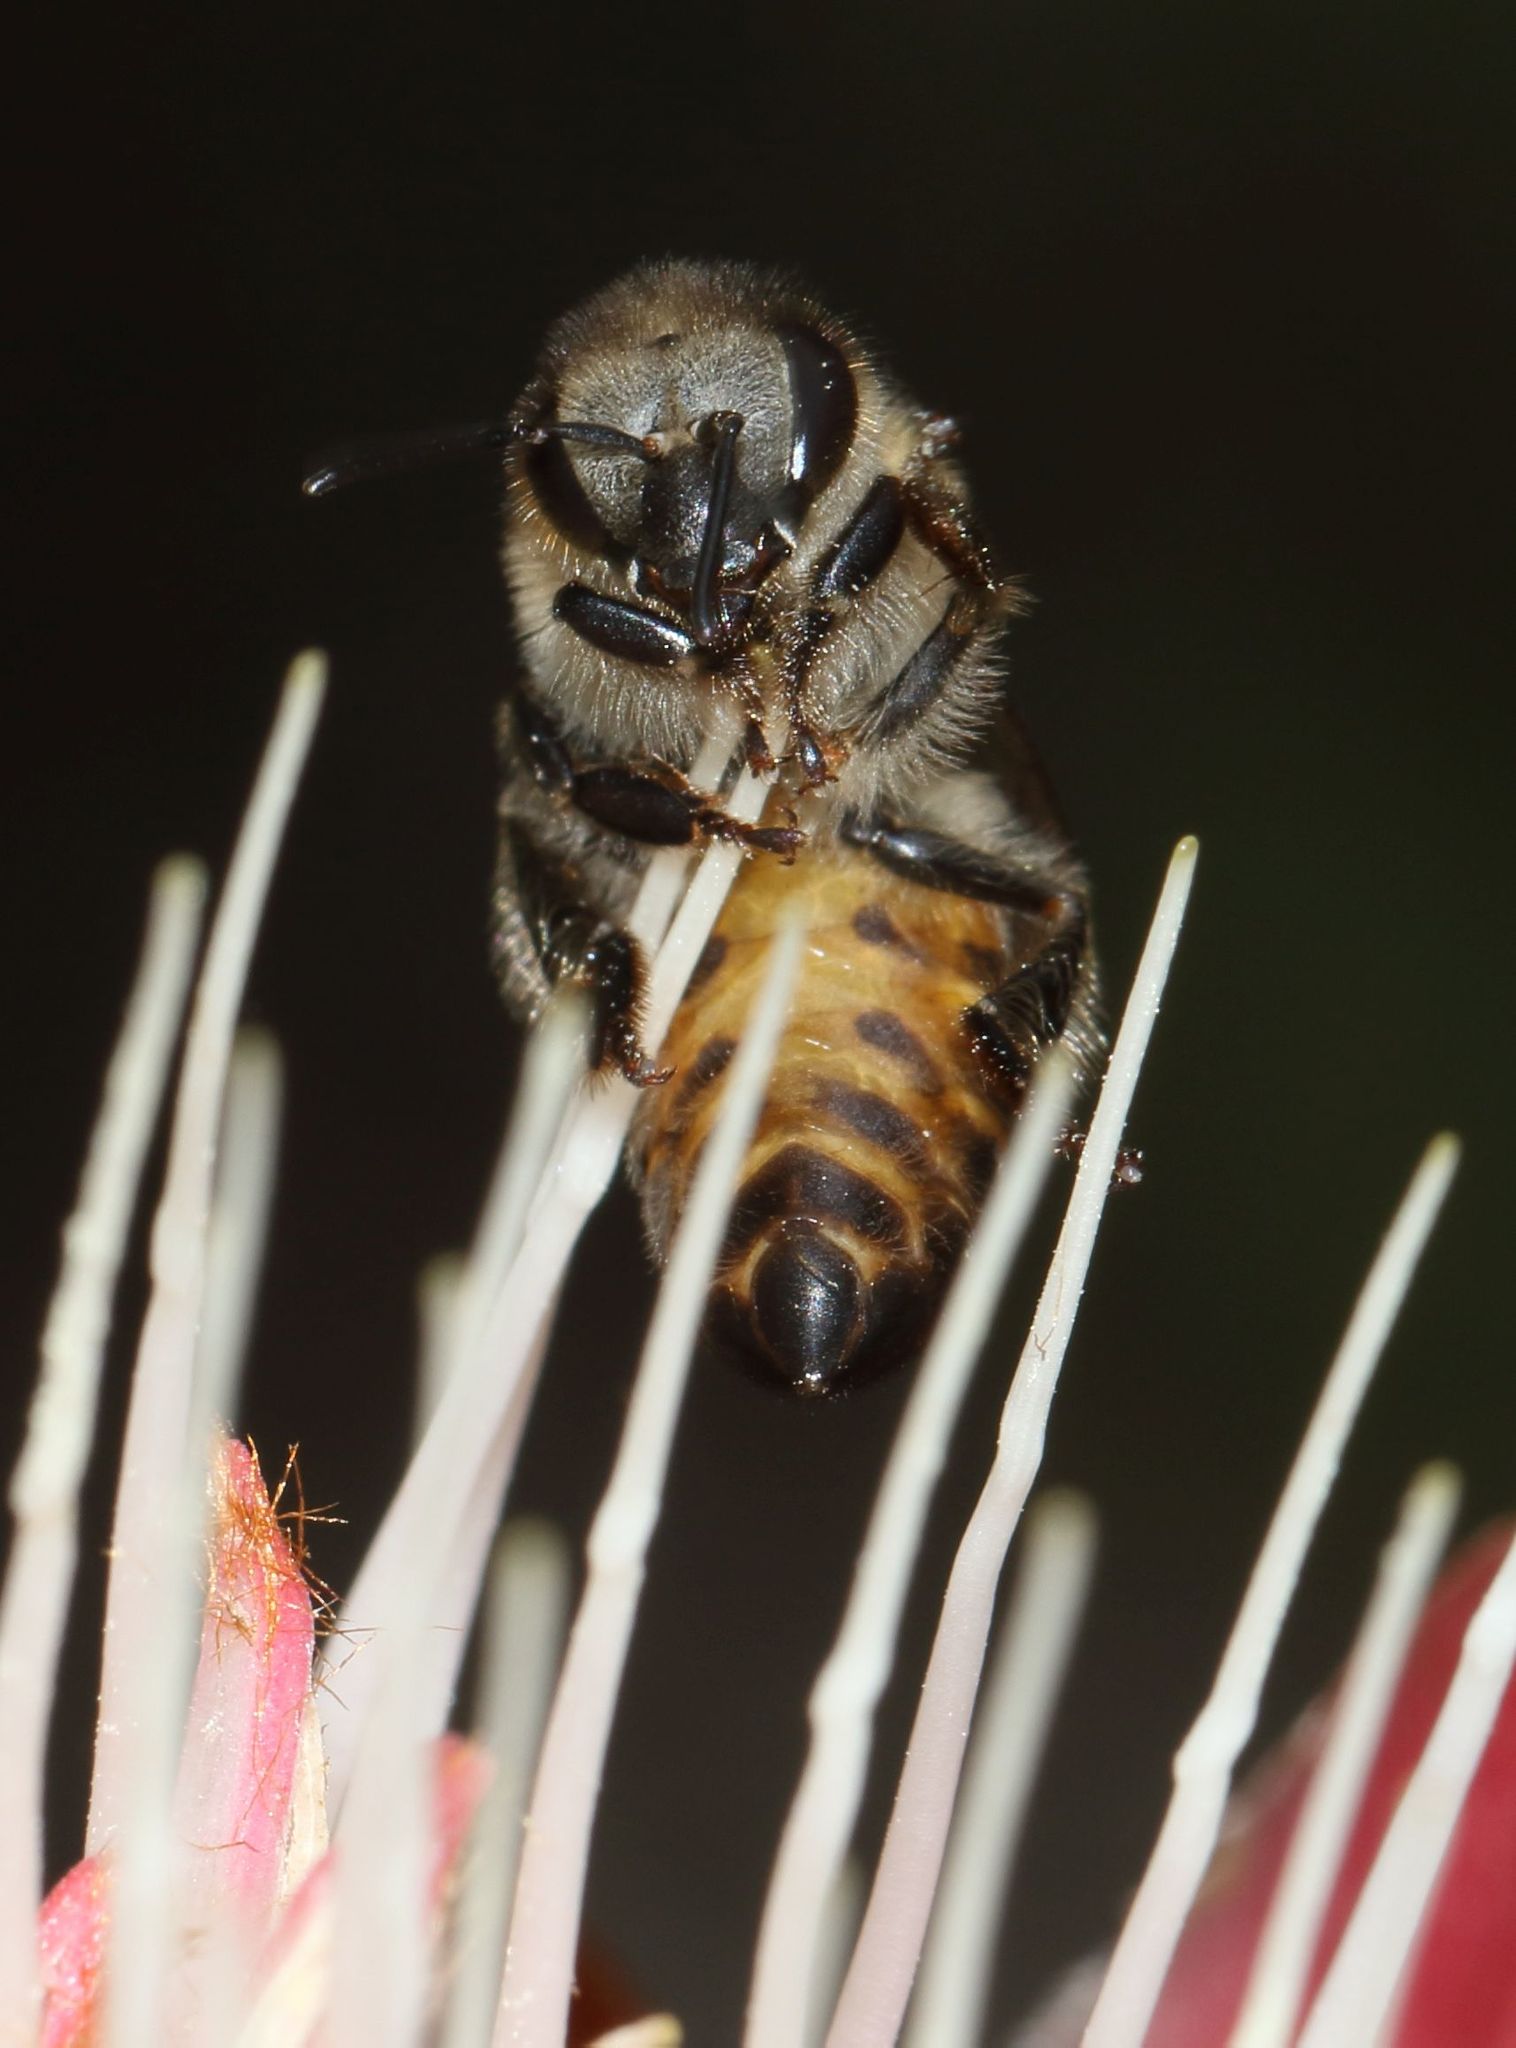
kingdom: Animalia
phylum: Arthropoda
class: Insecta
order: Hymenoptera
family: Apidae
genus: Apis
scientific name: Apis mellifera
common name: Honey bee
